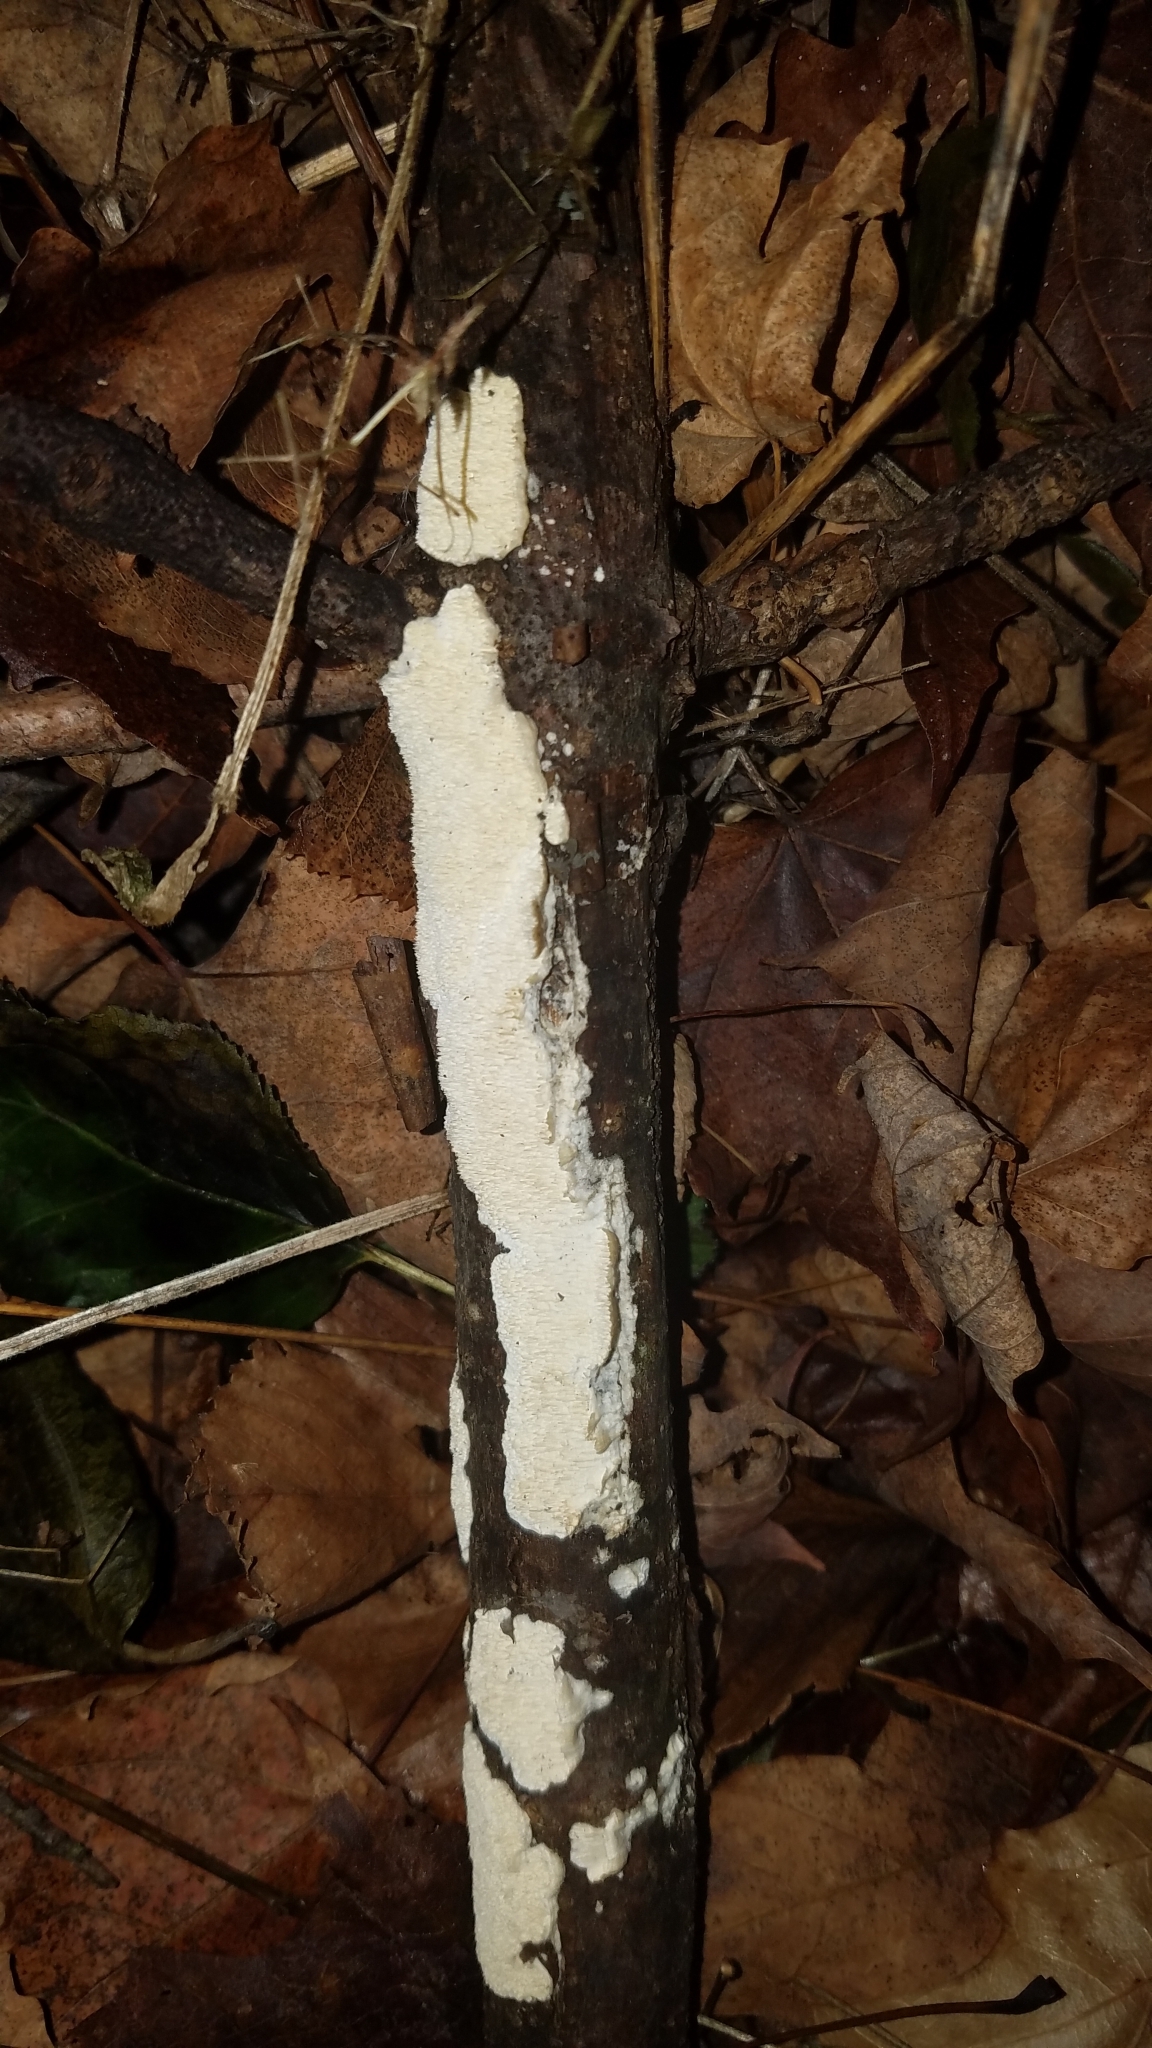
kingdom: Fungi
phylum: Basidiomycota
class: Agaricomycetes
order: Polyporales
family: Irpicaceae
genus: Irpex
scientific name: Irpex lacteus
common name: Milk-white toothed polypore
